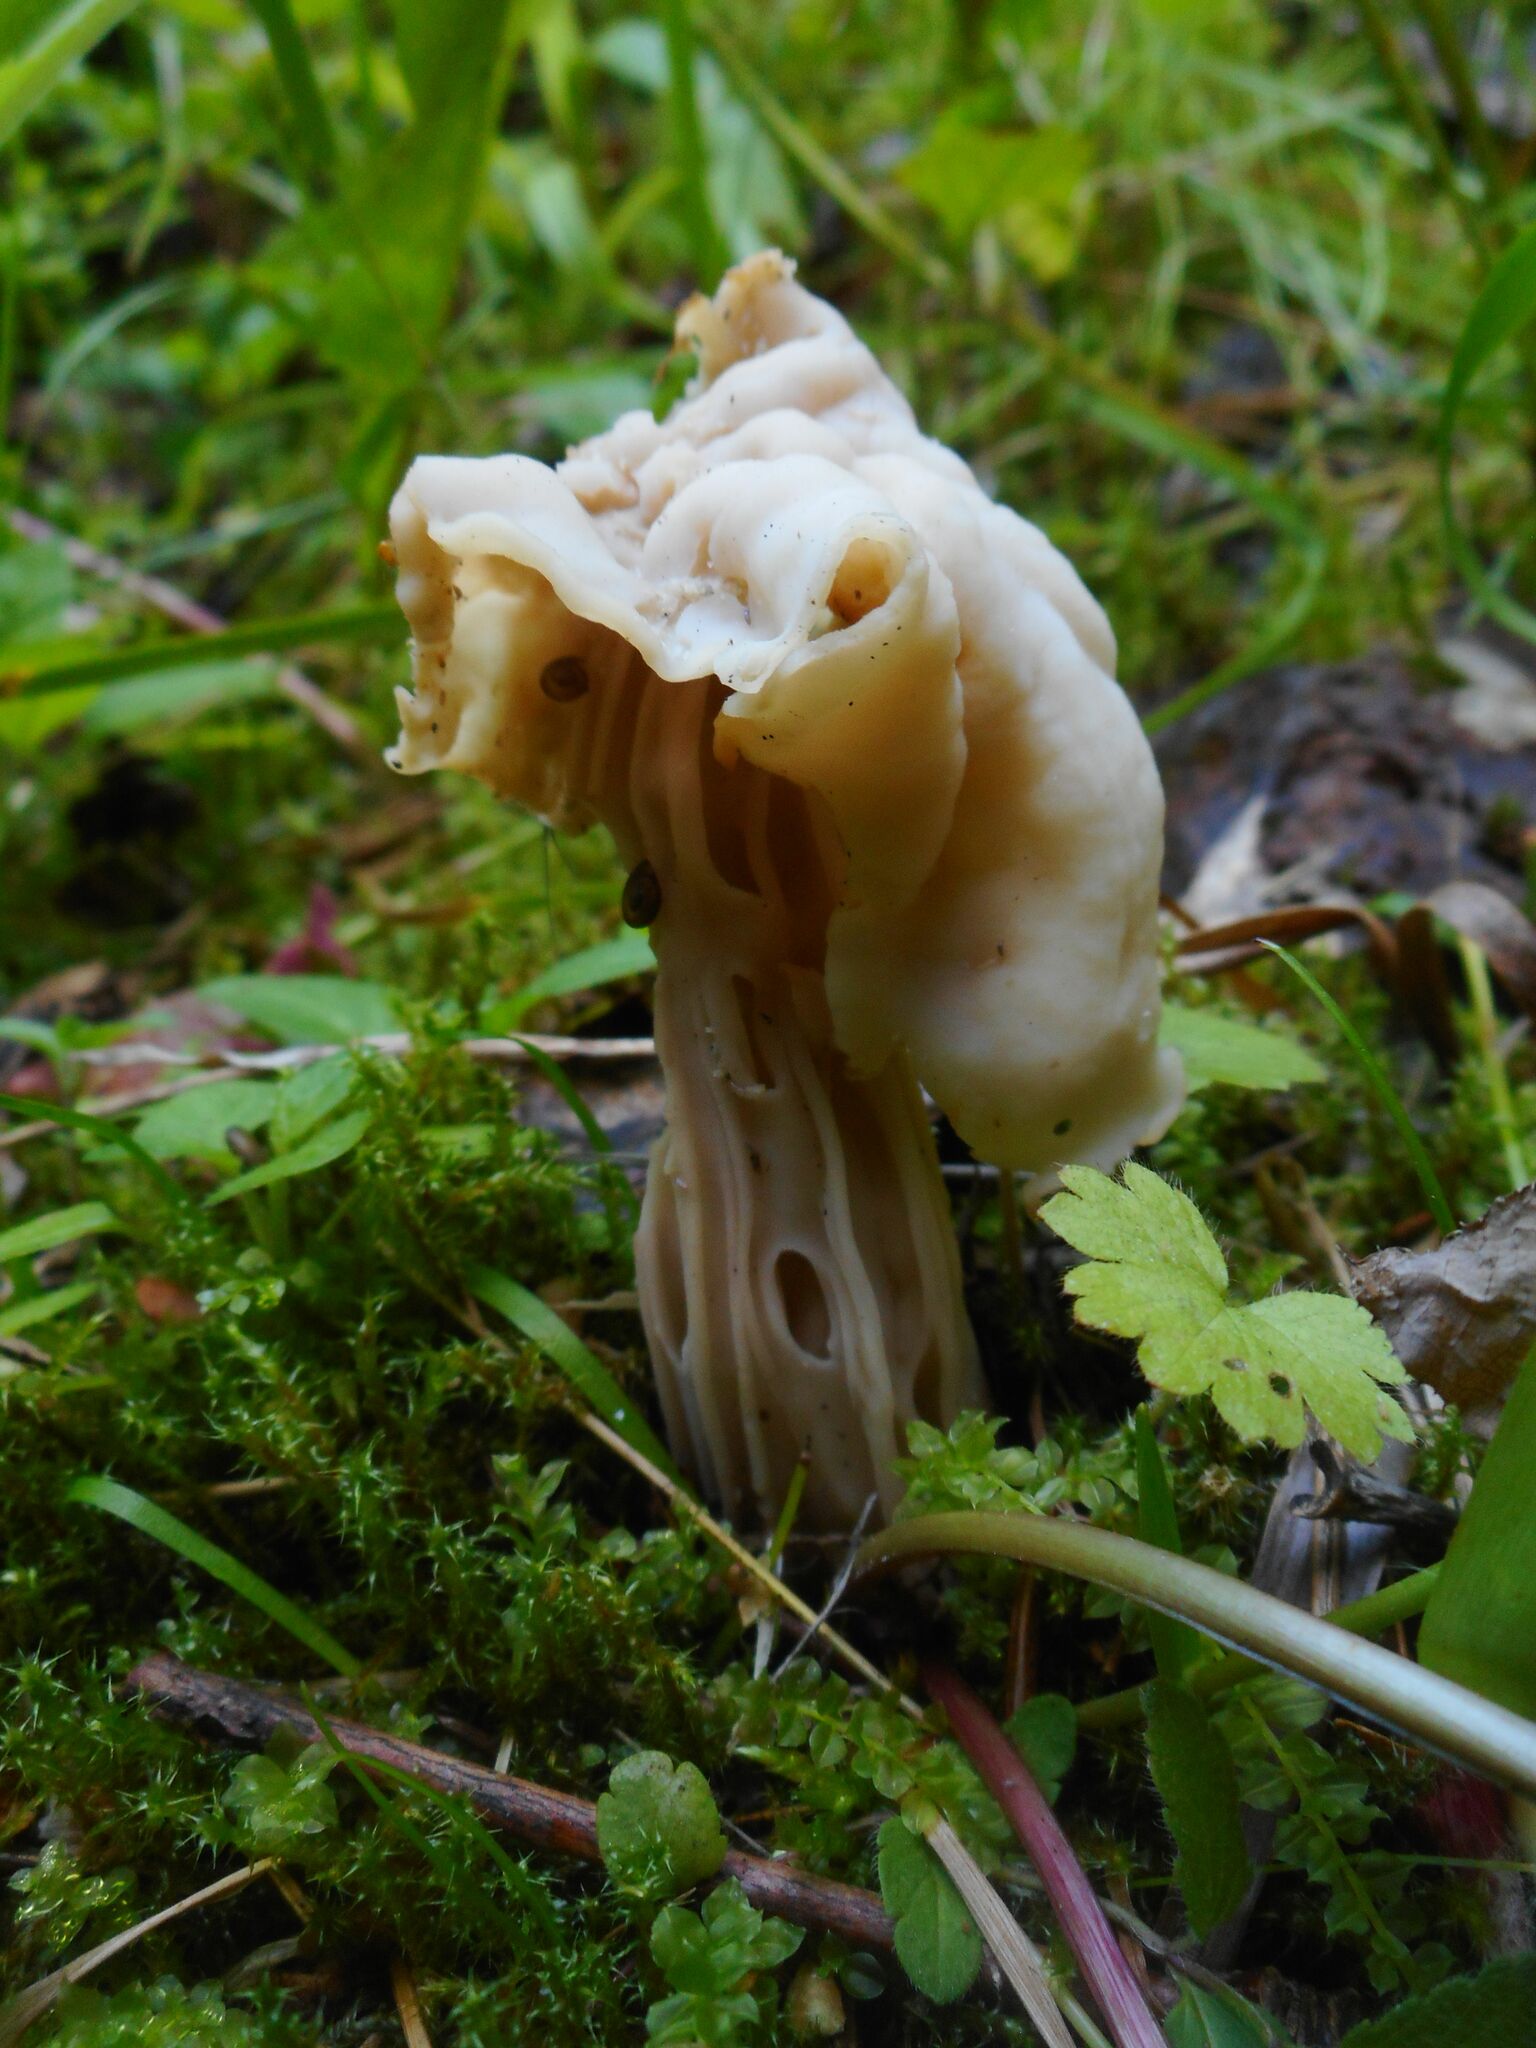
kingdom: Fungi
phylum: Ascomycota
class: Pezizomycetes
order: Pezizales
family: Helvellaceae
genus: Helvella
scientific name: Helvella crispa
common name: White saddle
